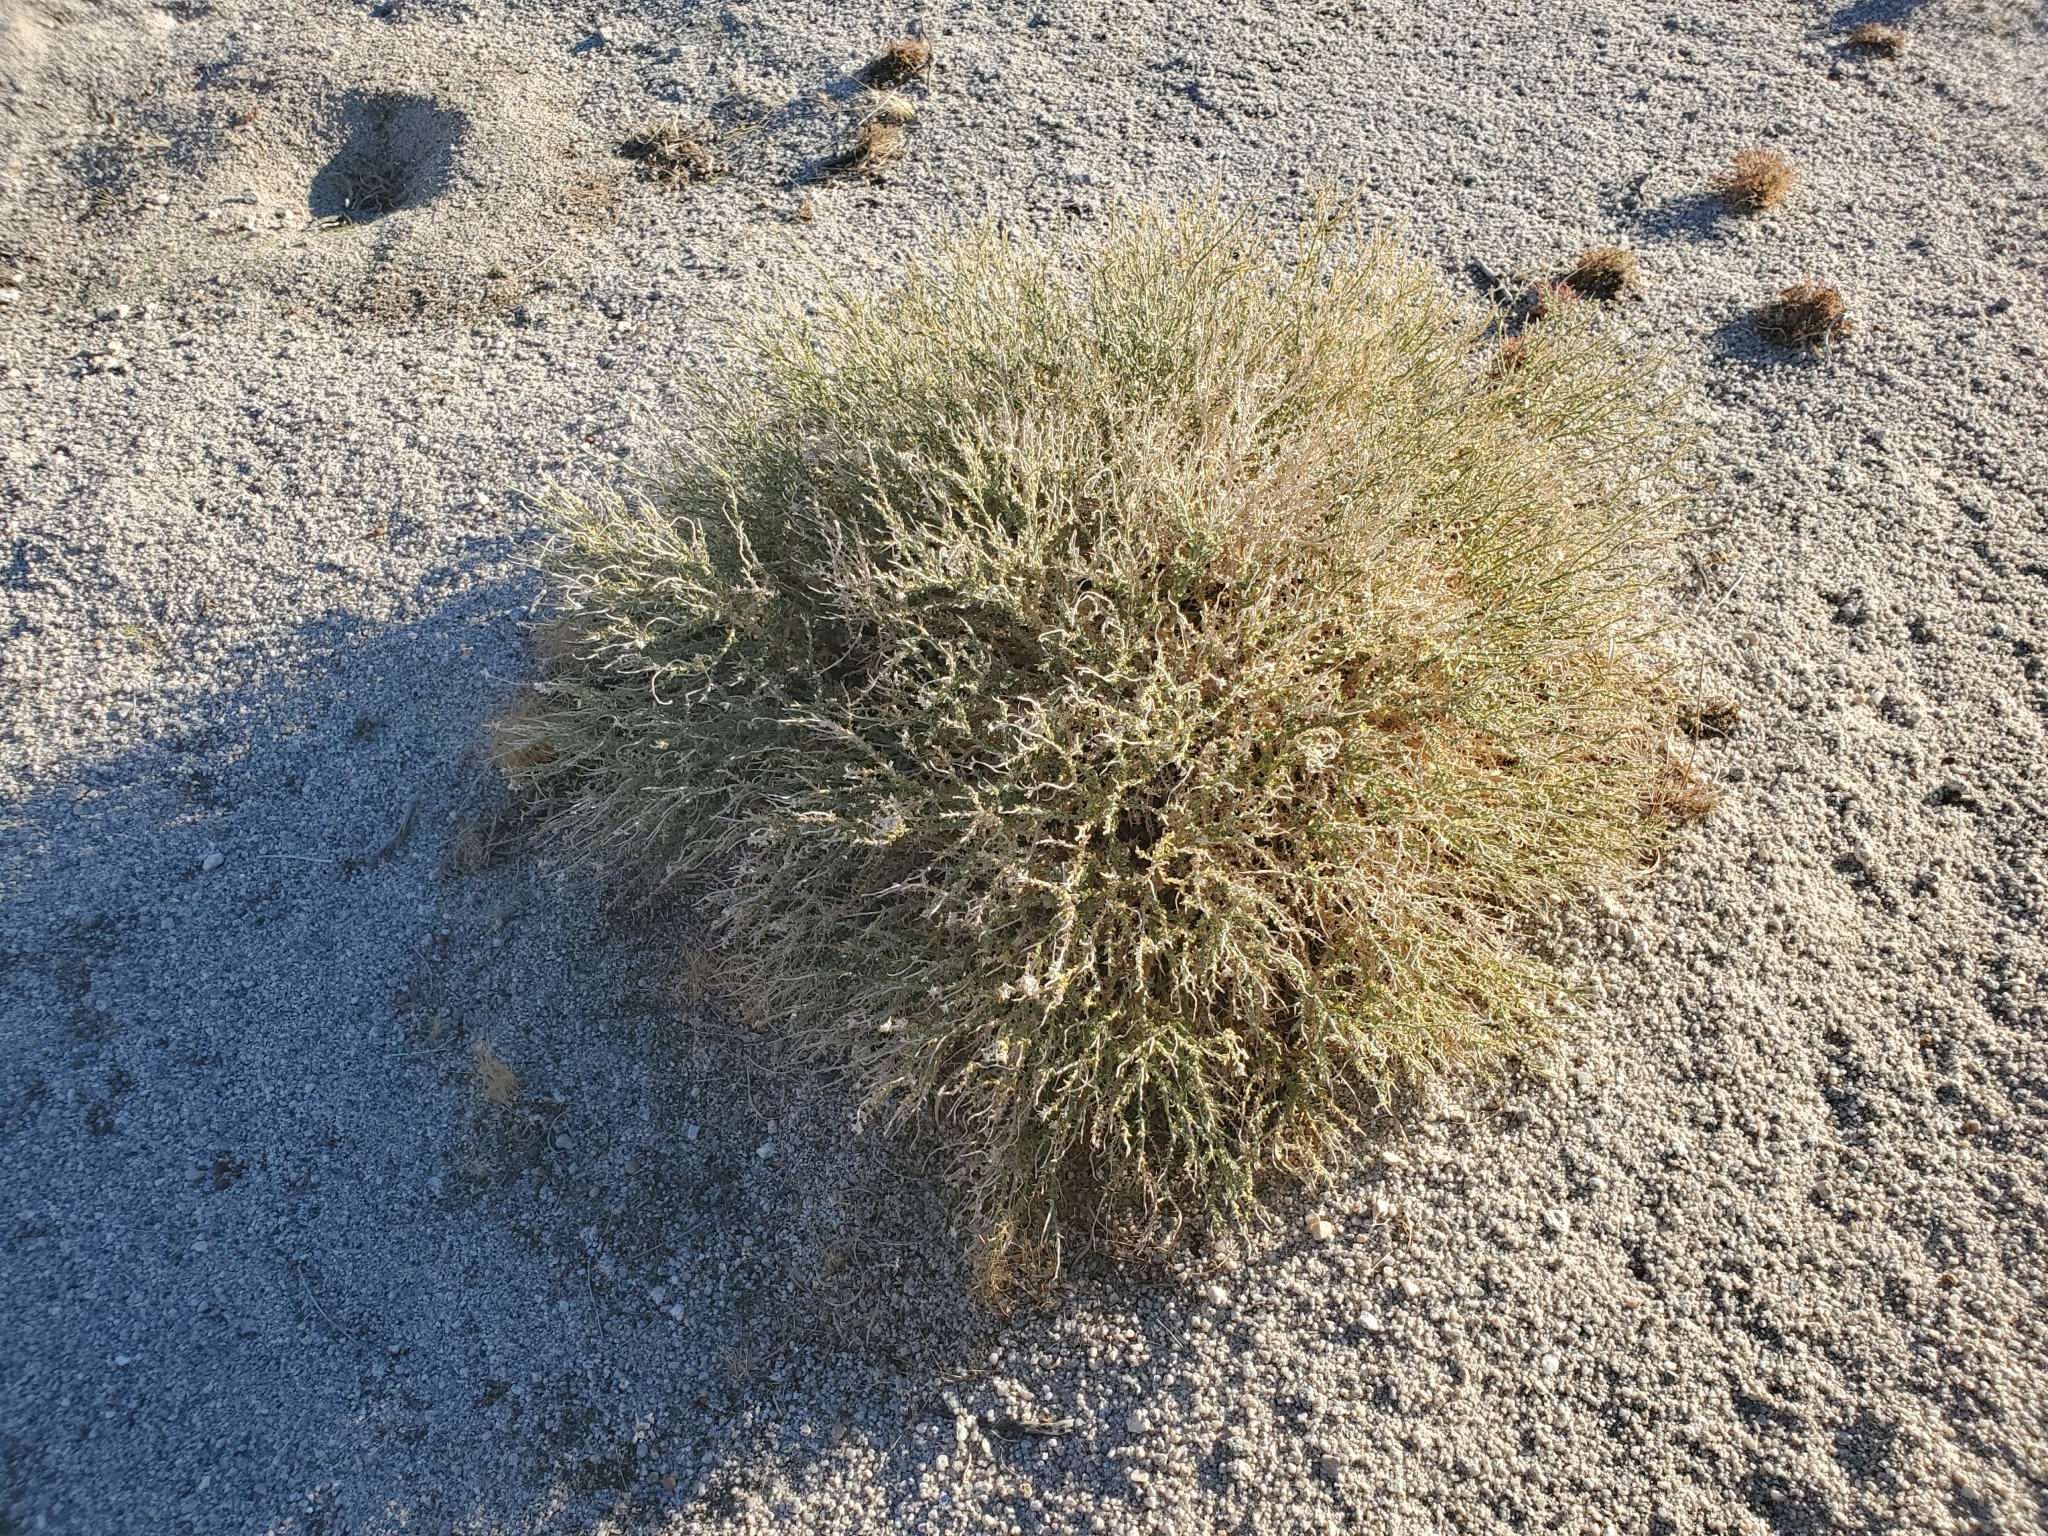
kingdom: Plantae
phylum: Tracheophyta
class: Magnoliopsida
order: Cornales
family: Loasaceae
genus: Petalonyx
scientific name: Petalonyx thurberi
